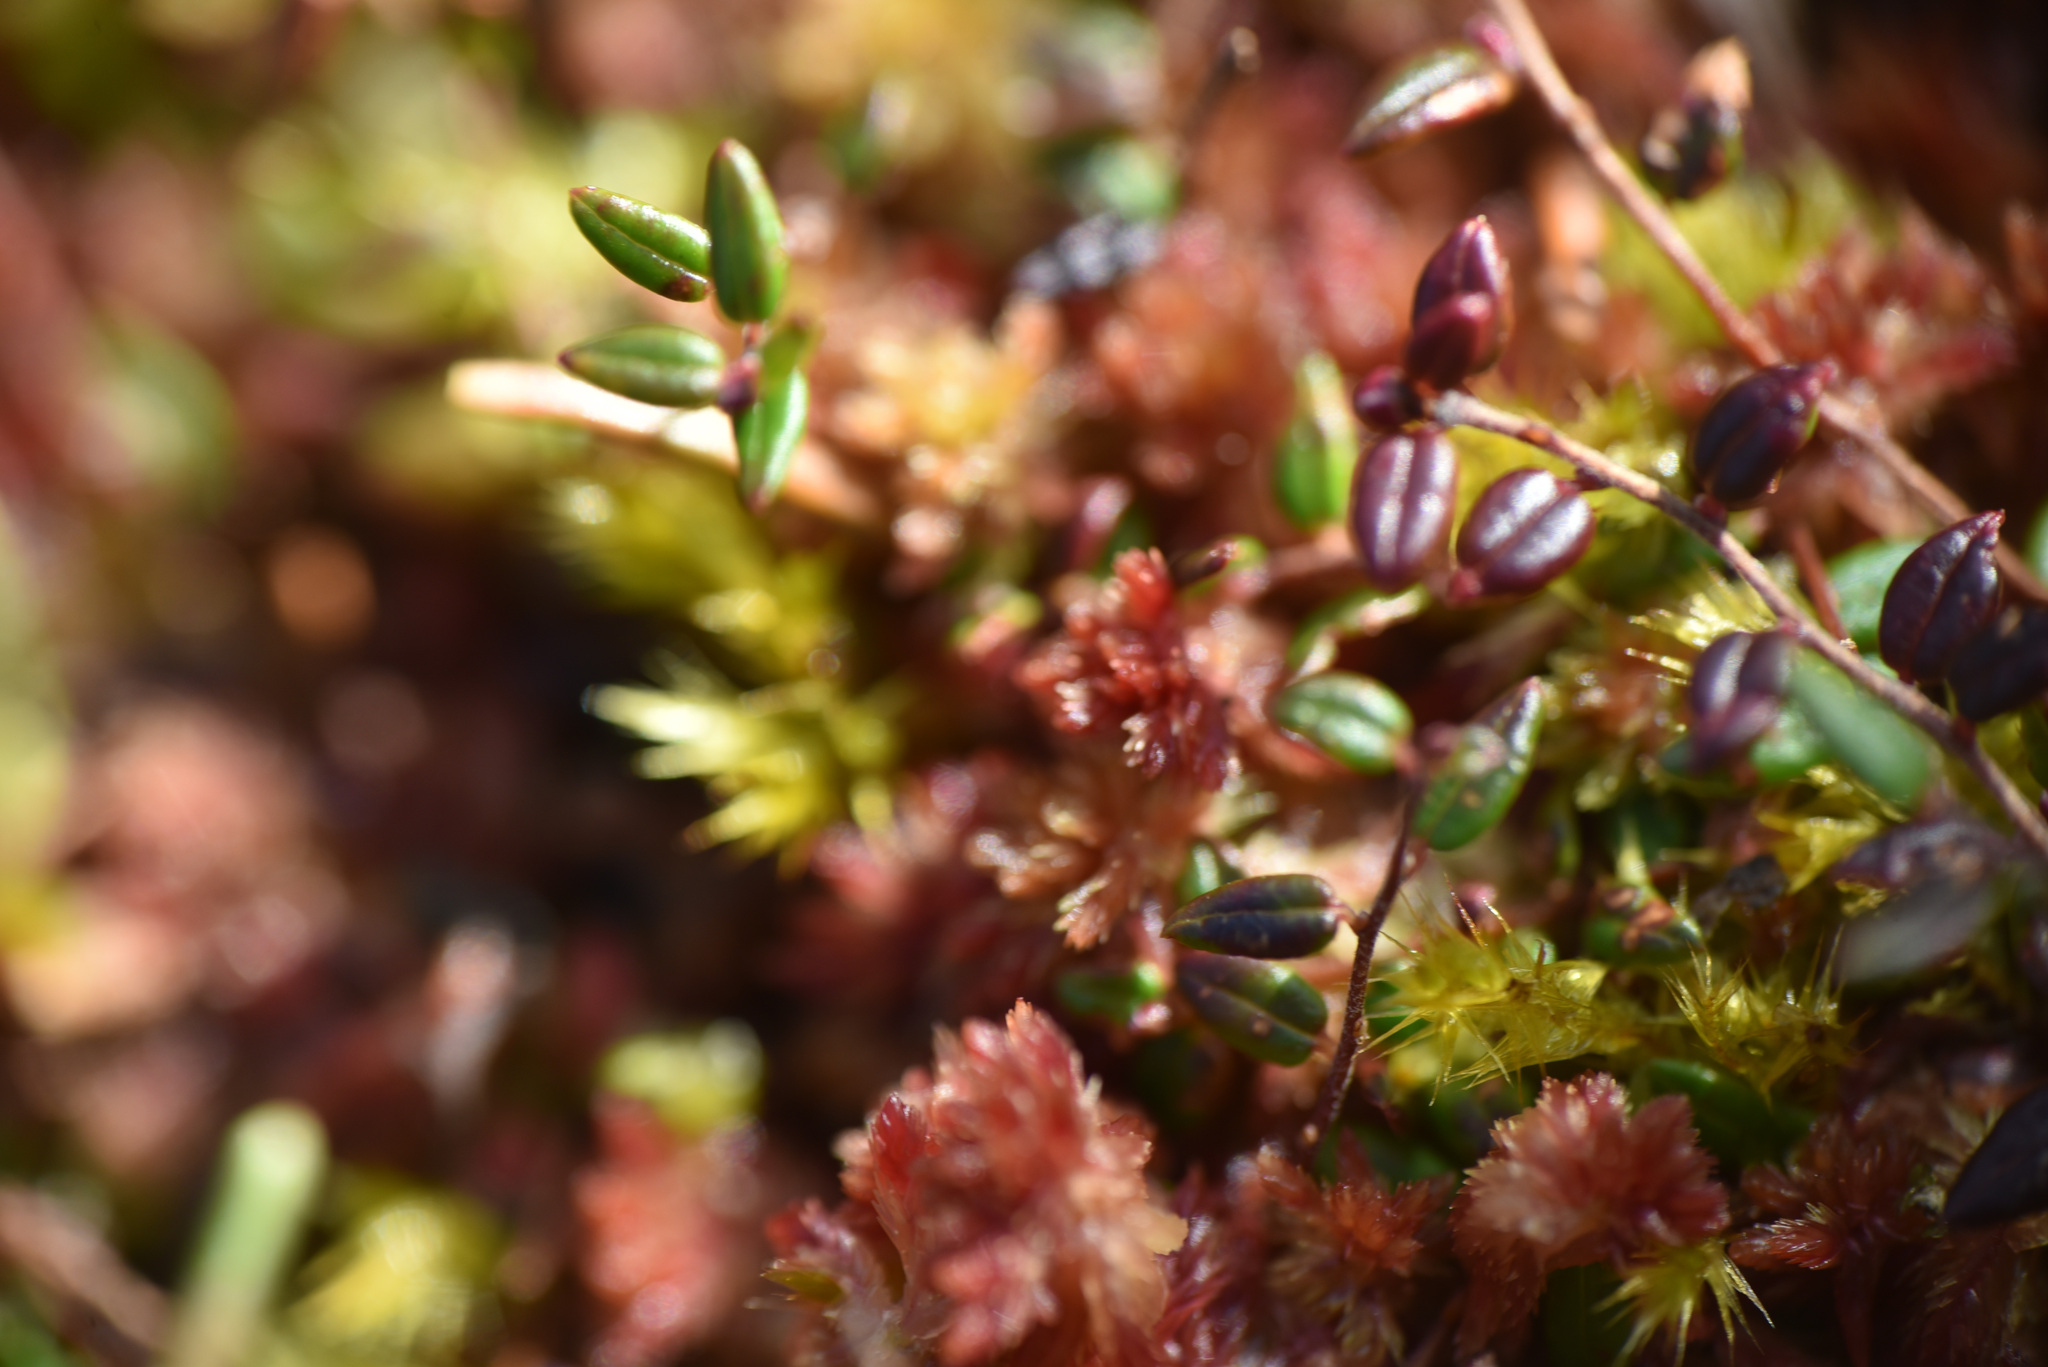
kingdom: Plantae
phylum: Tracheophyta
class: Magnoliopsida
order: Ericales
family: Ericaceae
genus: Vaccinium
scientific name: Vaccinium microcarpum
